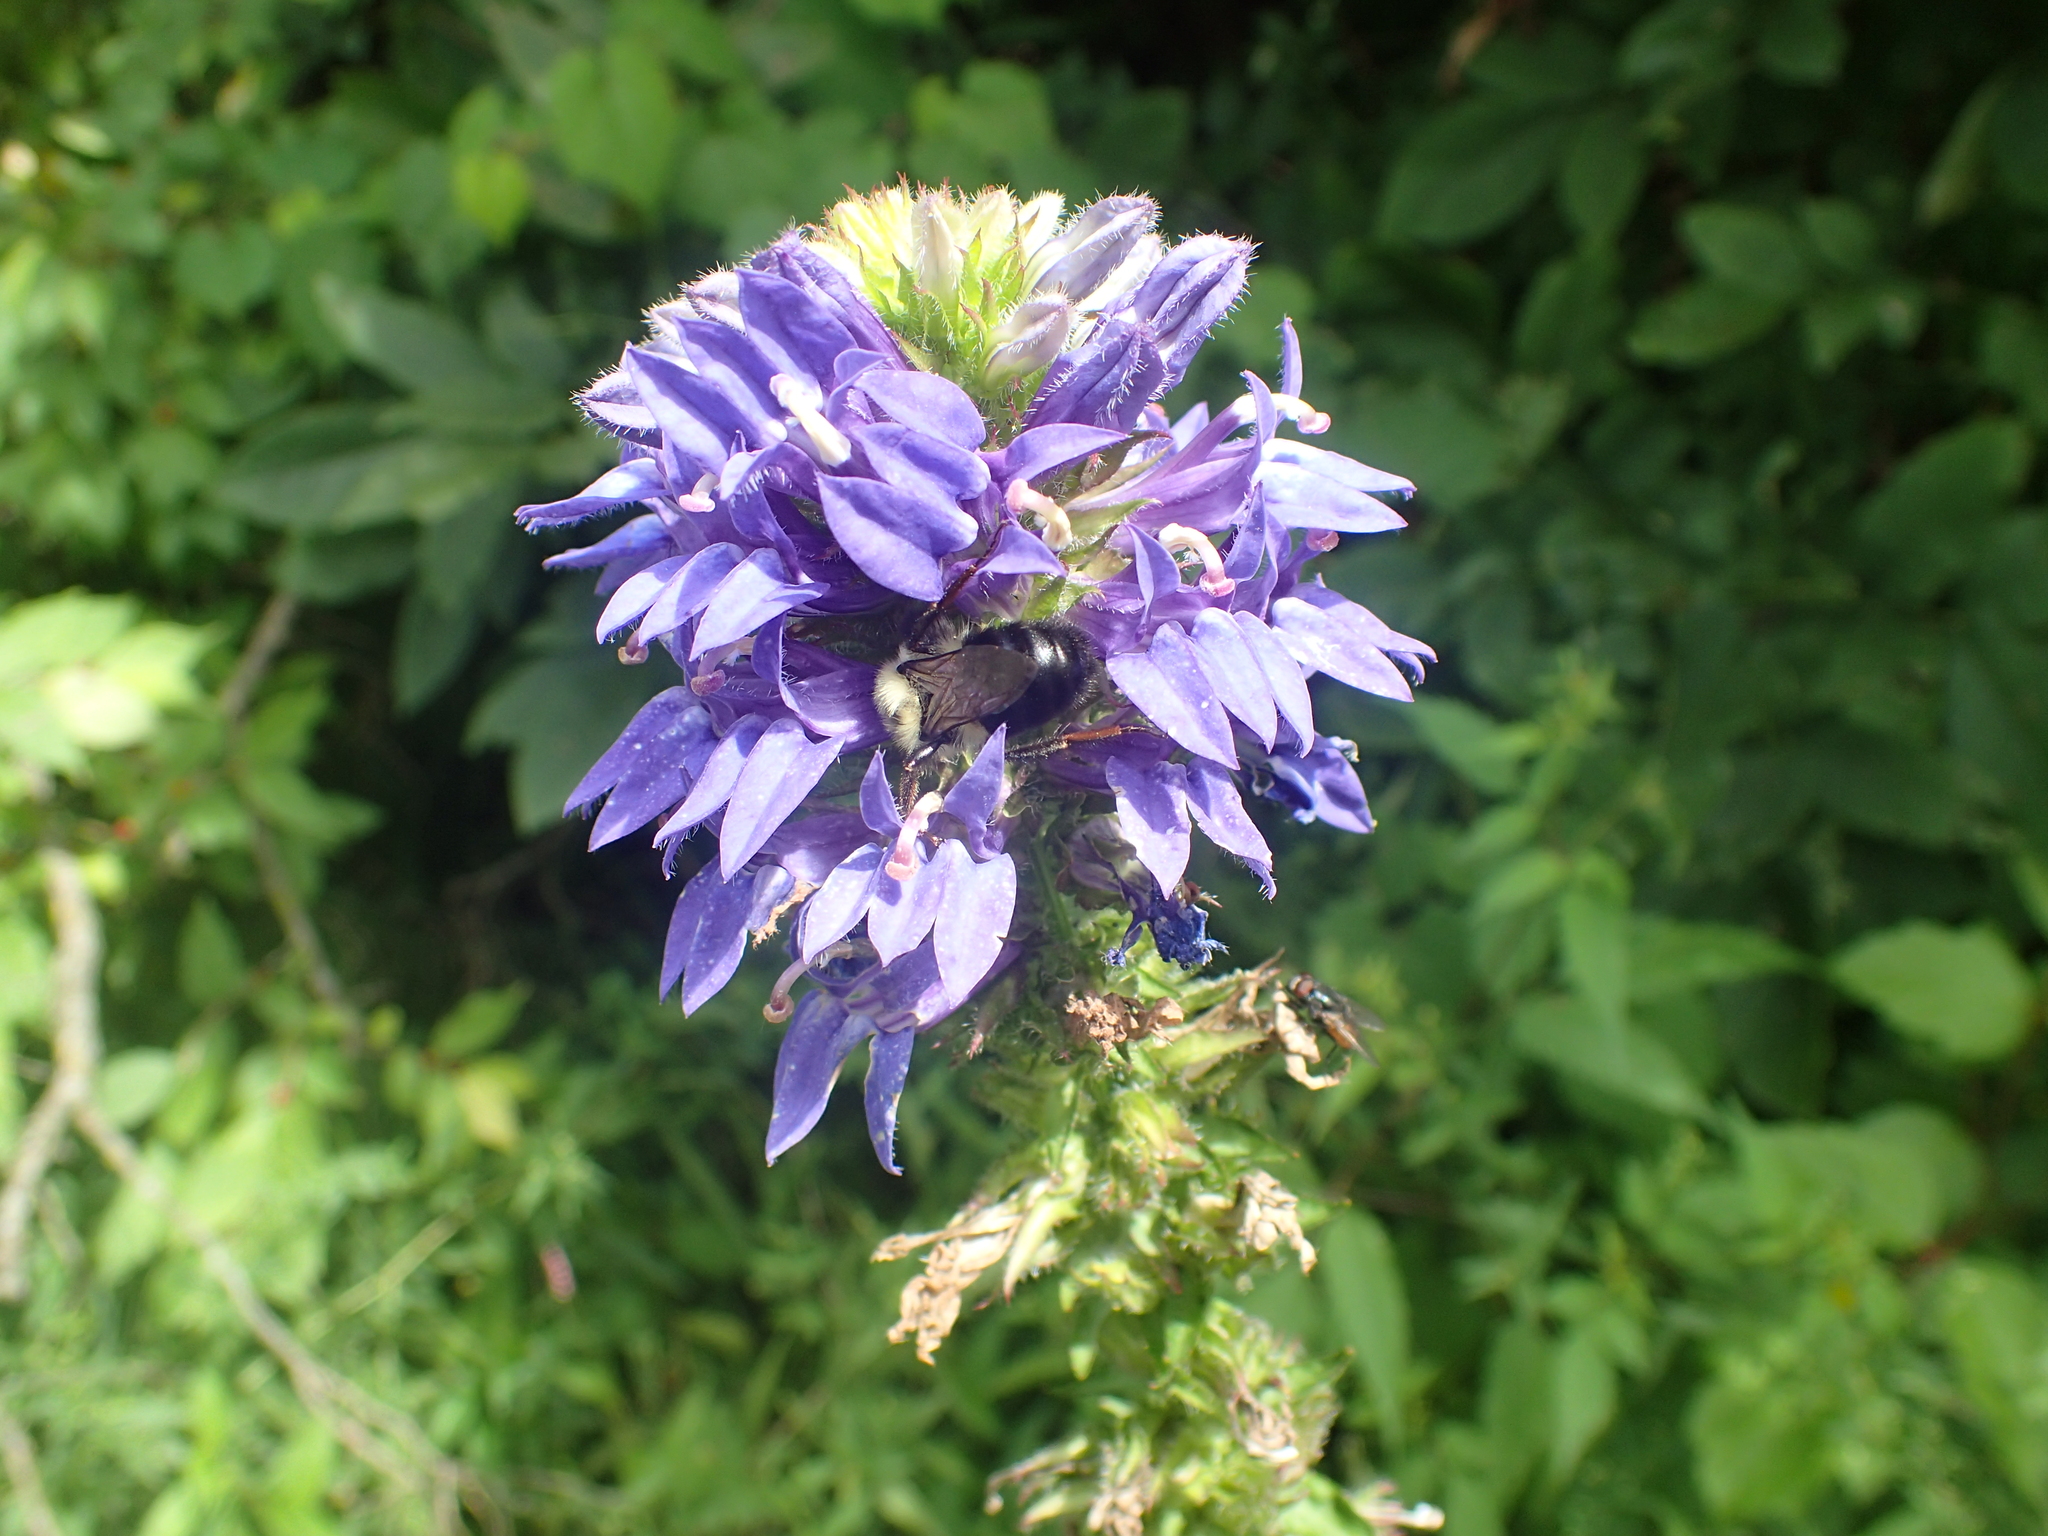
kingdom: Plantae
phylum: Tracheophyta
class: Magnoliopsida
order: Asterales
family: Campanulaceae
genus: Lobelia
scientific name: Lobelia siphilitica
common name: Great lobelia
